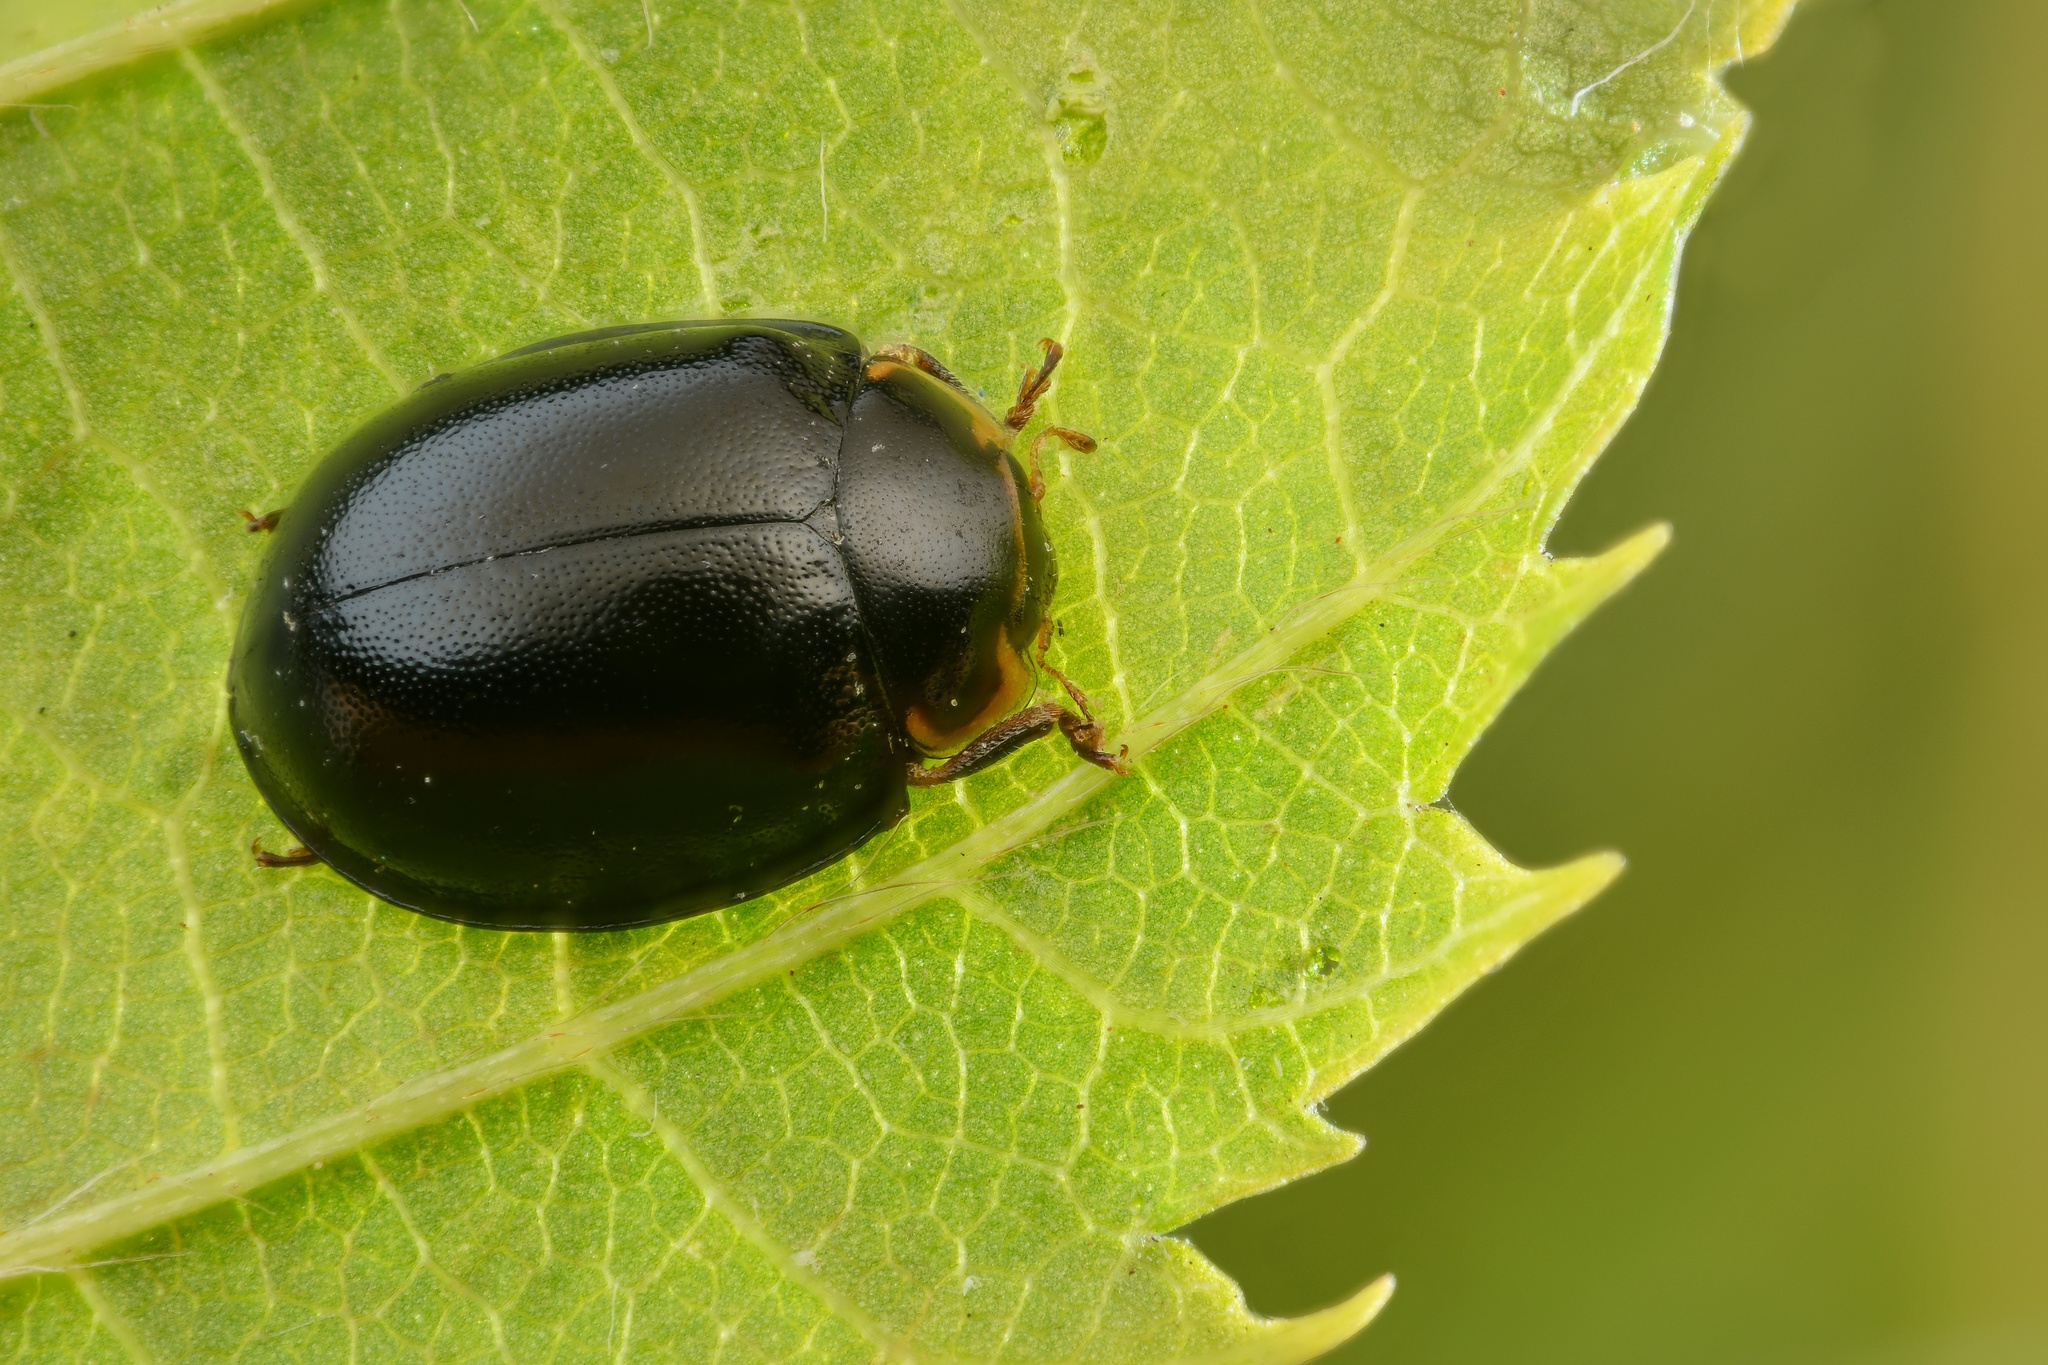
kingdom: Animalia
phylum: Arthropoda
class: Insecta
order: Coleoptera
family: Coccinellidae
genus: Oenopia
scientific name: Oenopia impustulata
